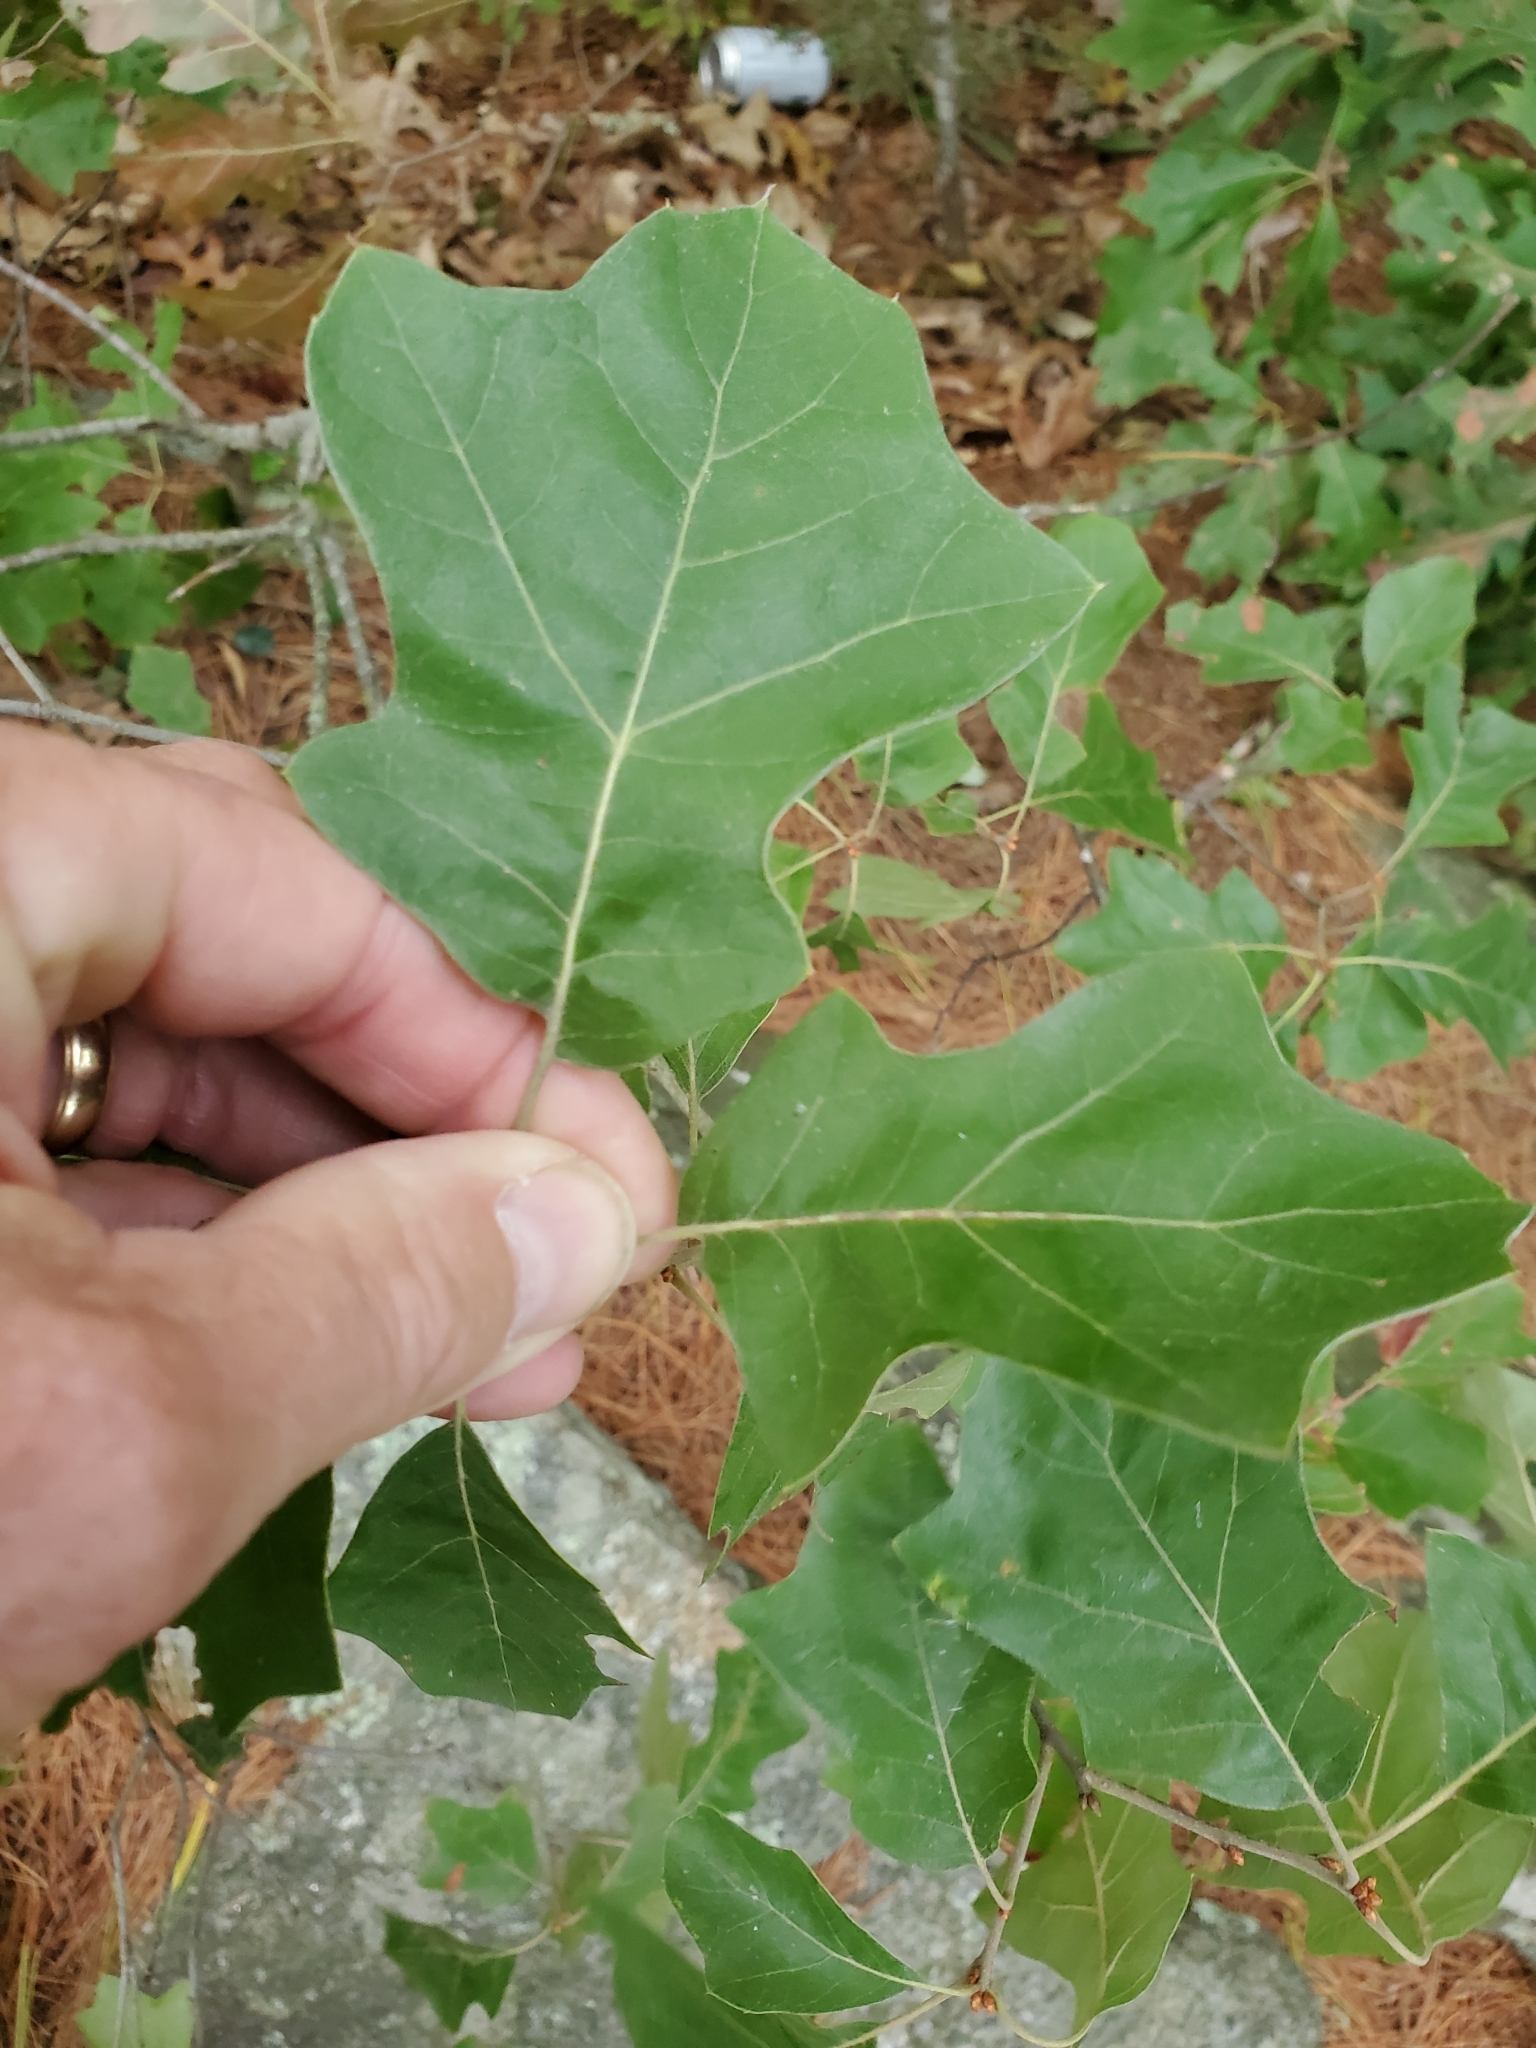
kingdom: Plantae
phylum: Tracheophyta
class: Magnoliopsida
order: Fagales
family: Fagaceae
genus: Quercus
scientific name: Quercus ilicifolia
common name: Bear oak
